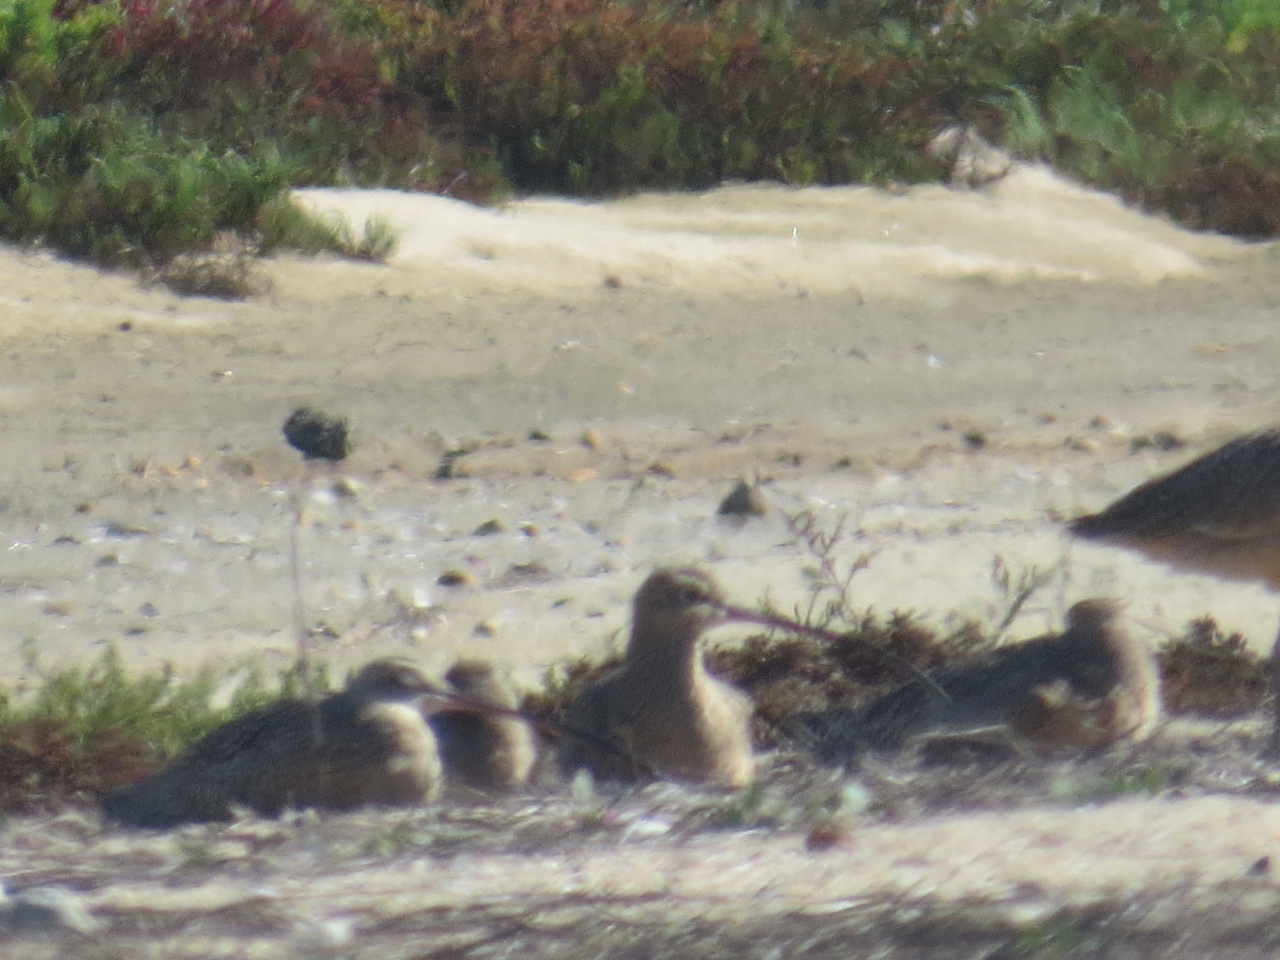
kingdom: Animalia
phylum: Chordata
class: Aves
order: Charadriiformes
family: Scolopacidae
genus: Numenius
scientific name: Numenius americanus
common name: Long-billed curlew
